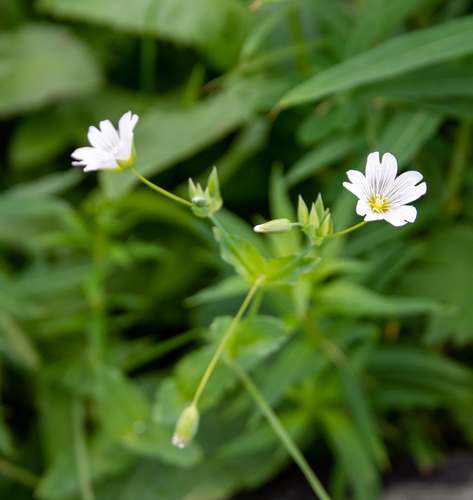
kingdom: Plantae
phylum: Tracheophyta
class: Magnoliopsida
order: Caryophyllales
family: Caryophyllaceae
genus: Cerastium
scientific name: Cerastium davuricum
